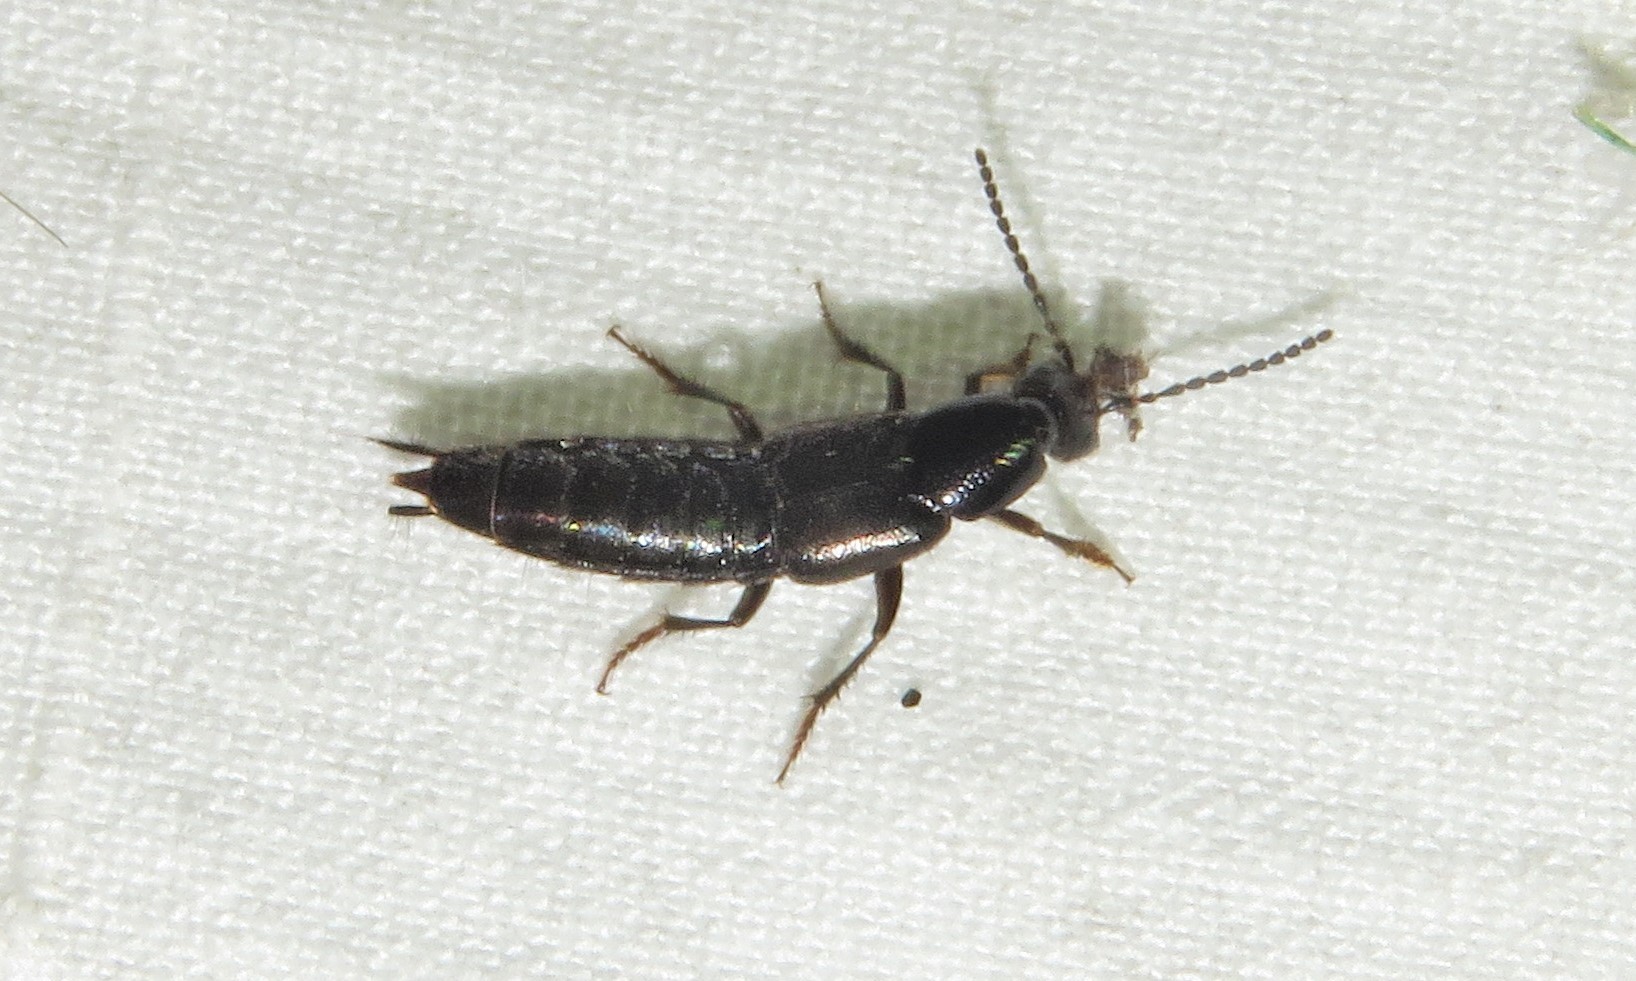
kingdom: Animalia
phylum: Arthropoda
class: Insecta
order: Coleoptera
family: Staphylinidae
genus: Philonthus
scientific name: Philonthus vulgatus
